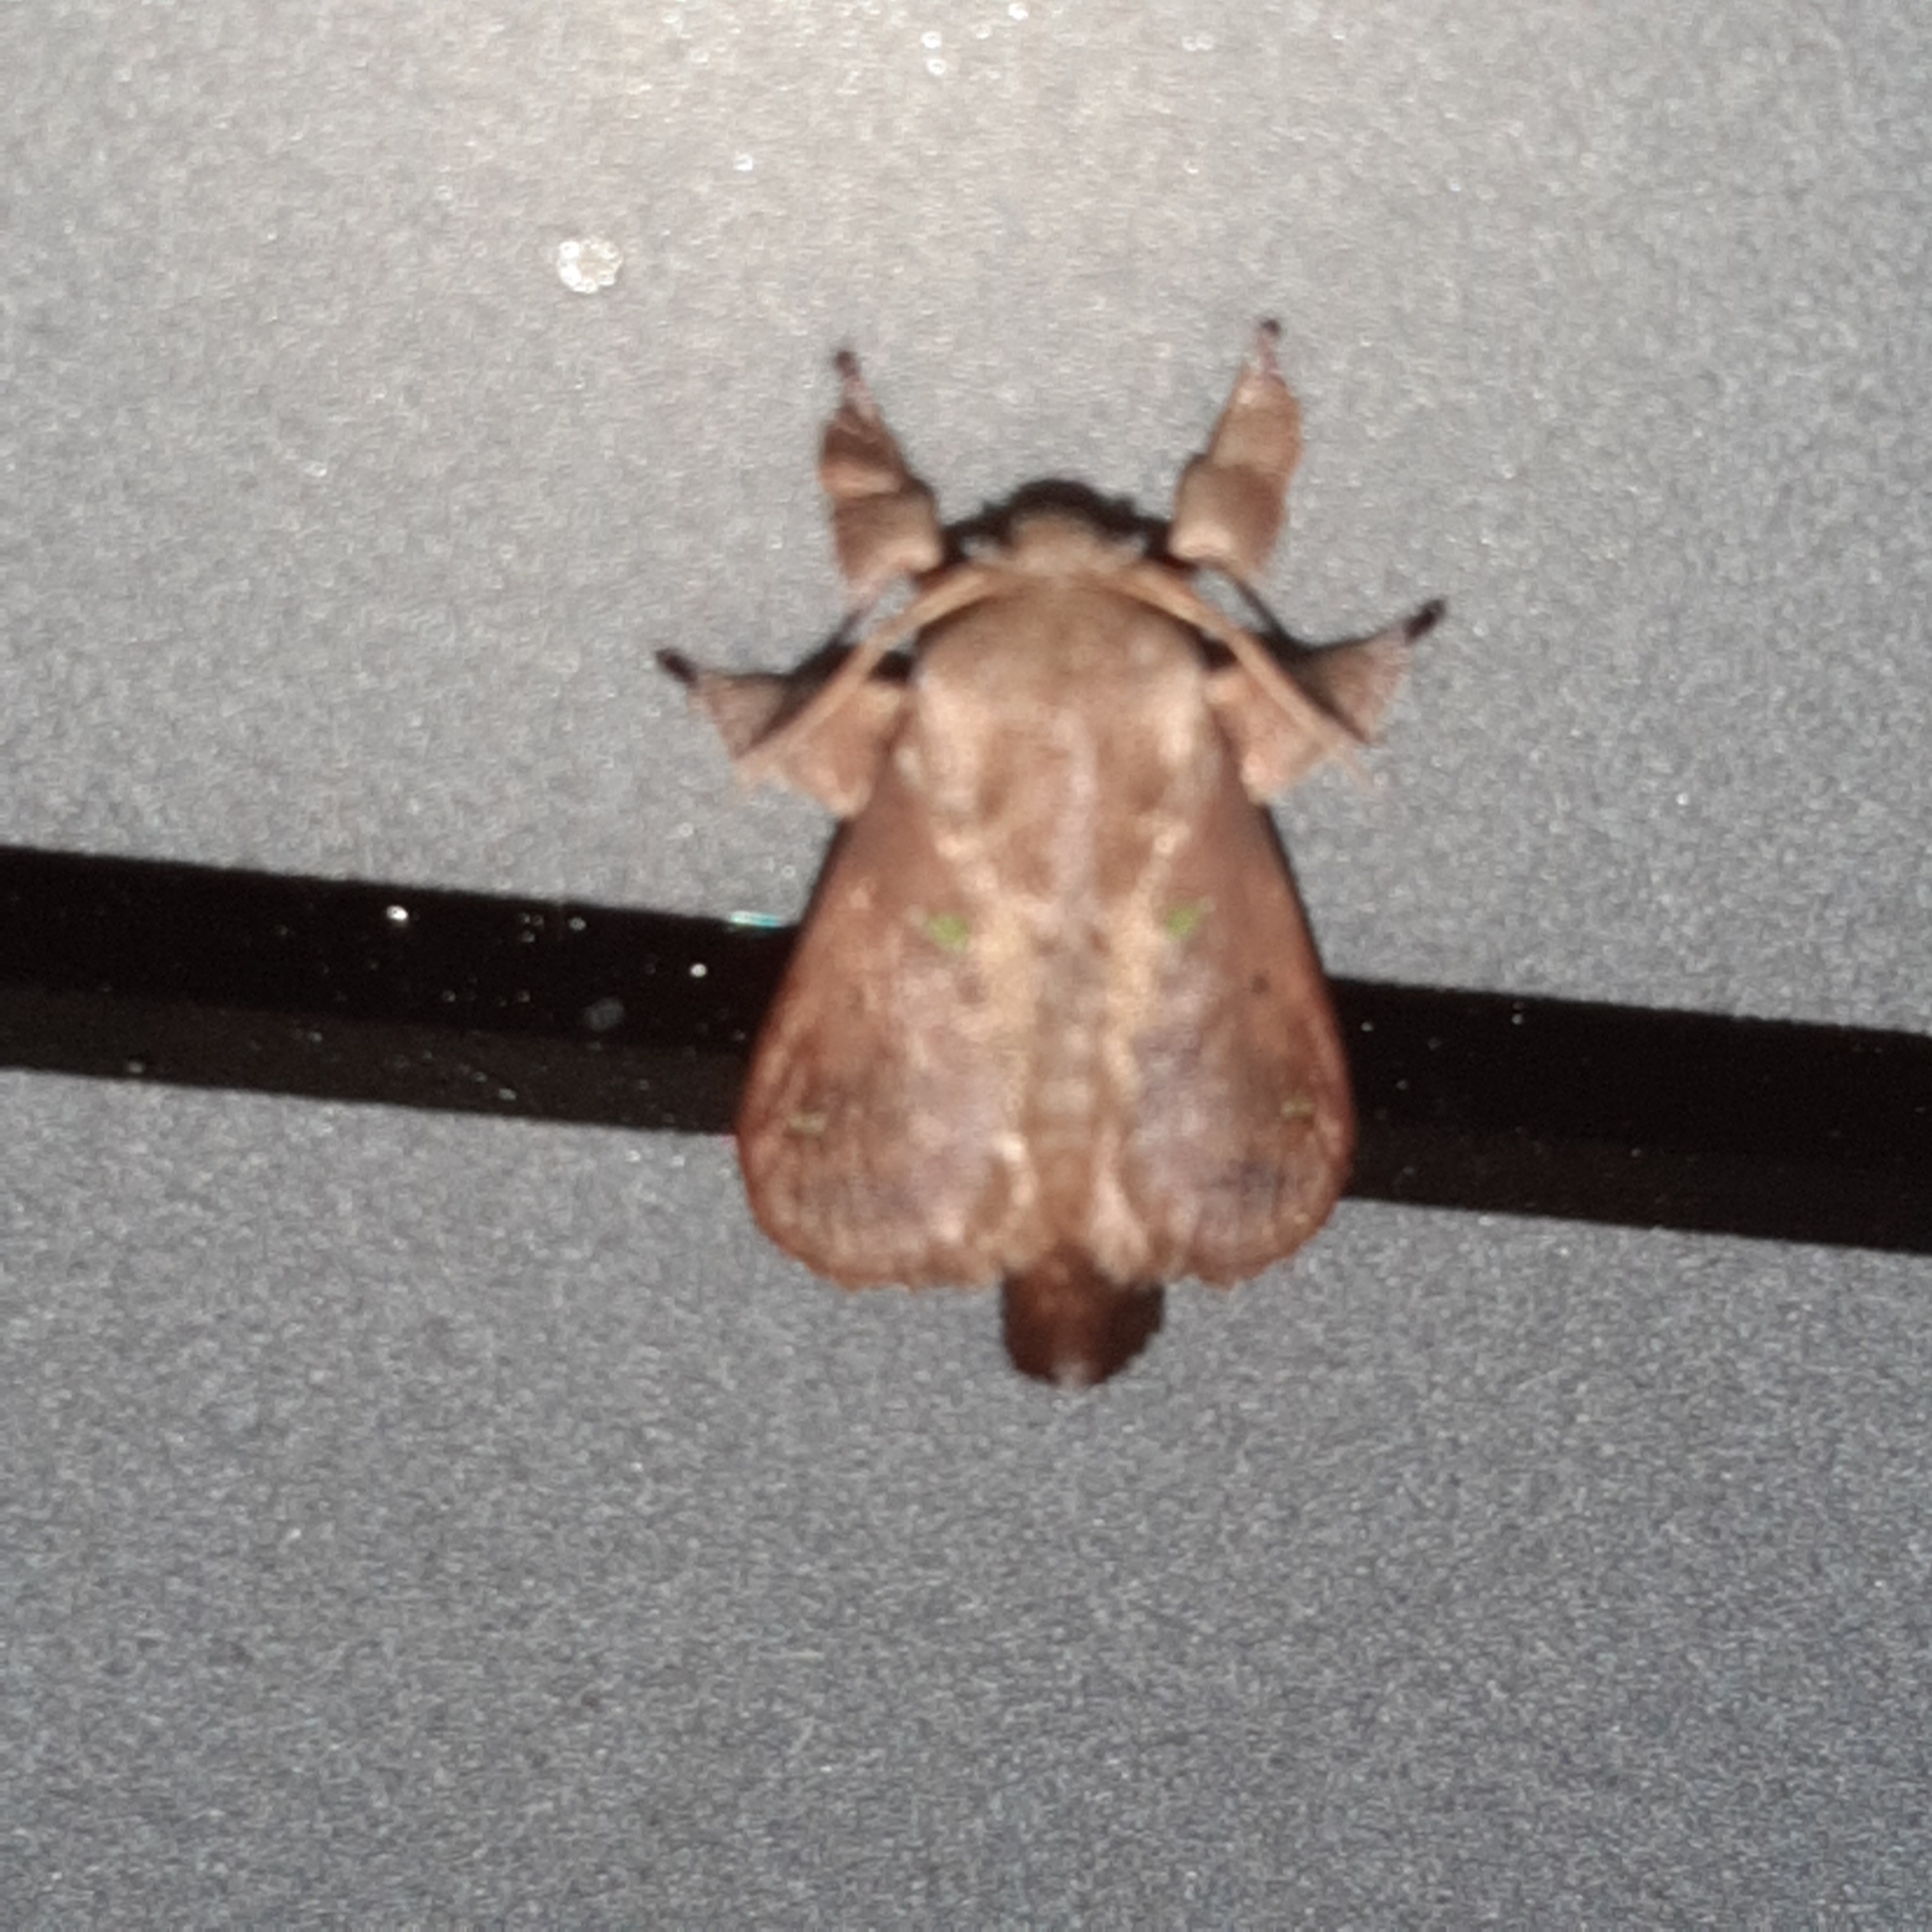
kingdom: Animalia
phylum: Arthropoda
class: Insecta
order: Lepidoptera
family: Limacodidae
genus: Euclea
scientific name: Euclea norba
